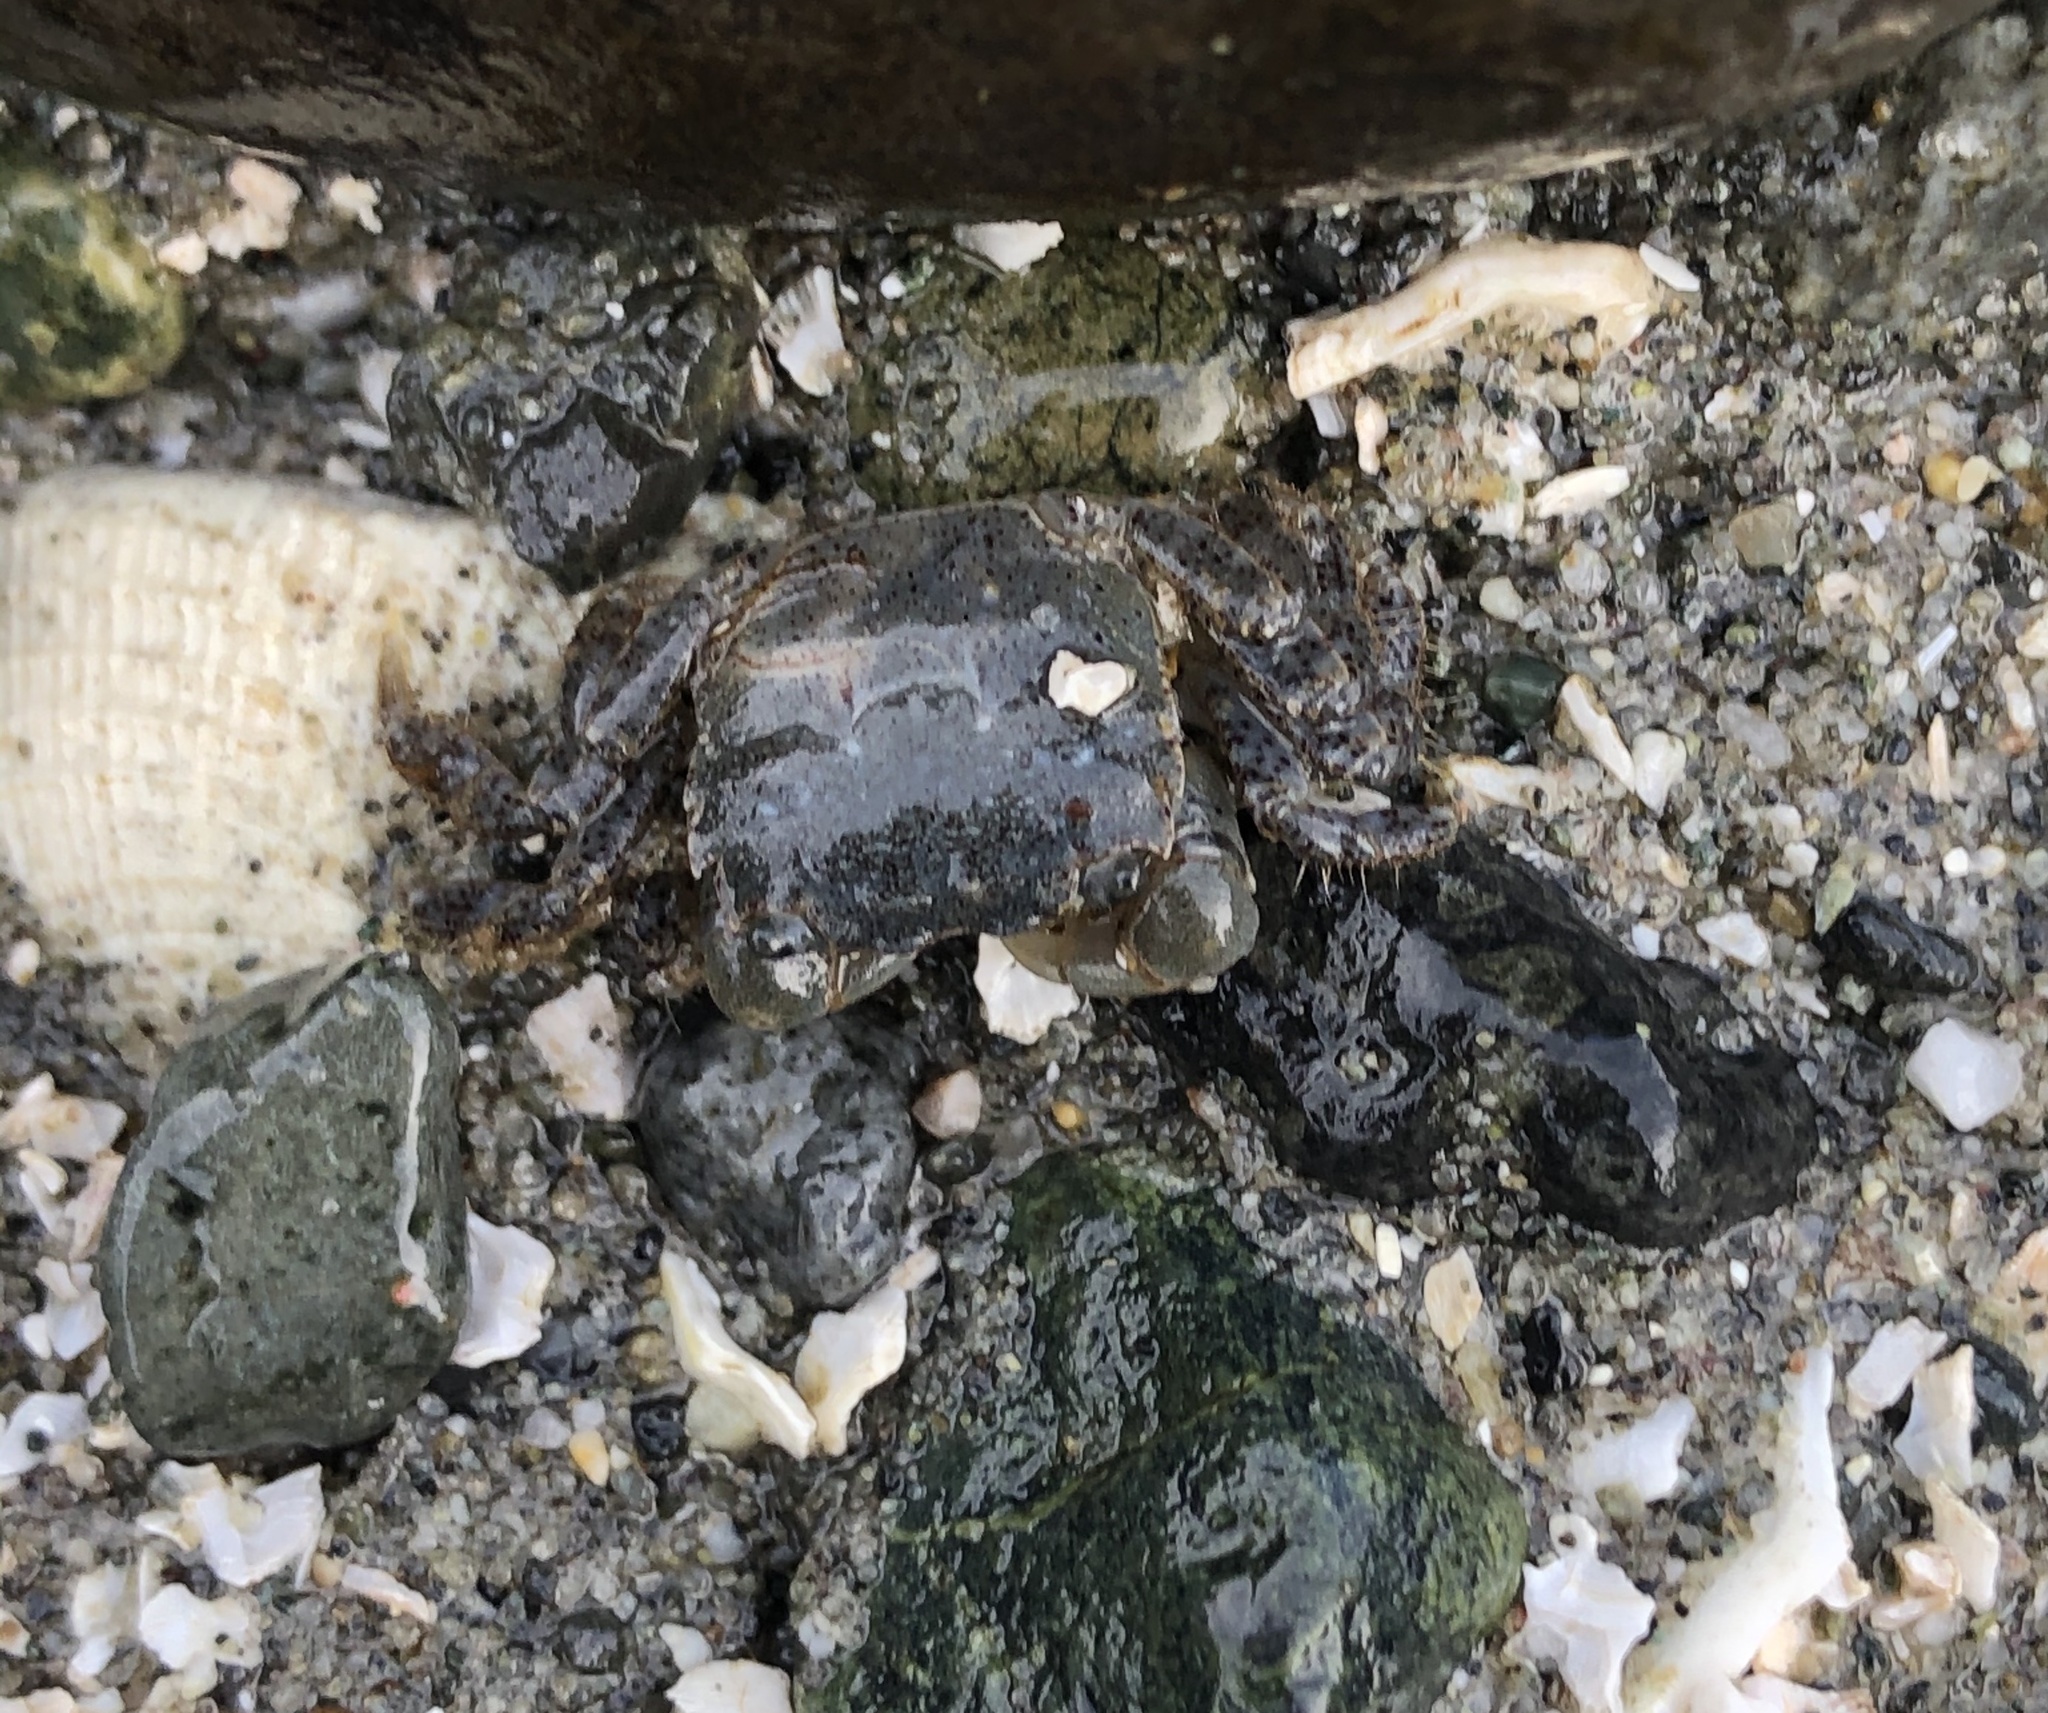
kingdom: Animalia
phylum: Arthropoda
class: Malacostraca
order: Decapoda
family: Varunidae
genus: Hemigrapsus
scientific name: Hemigrapsus oregonensis
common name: Yellow shore crab
